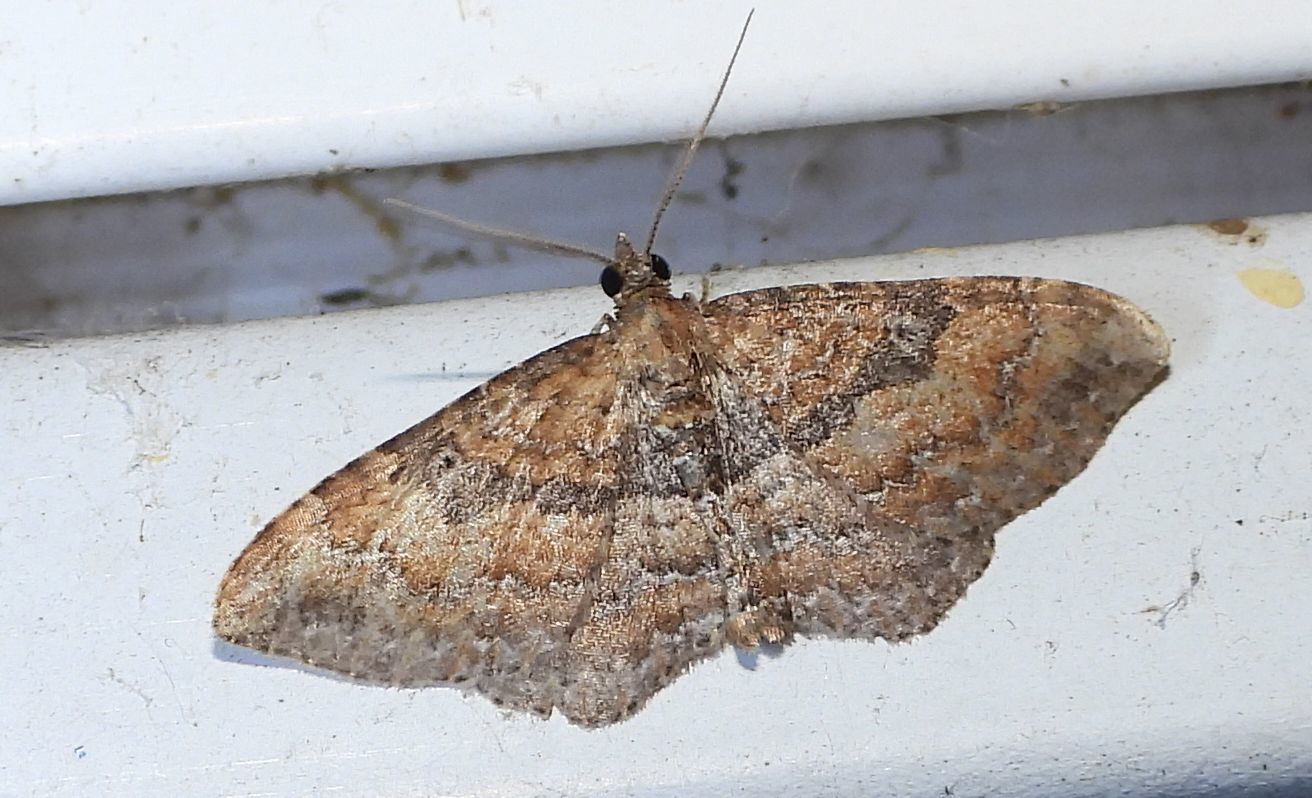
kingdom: Animalia
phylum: Arthropoda
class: Insecta
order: Lepidoptera
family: Geometridae
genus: Orthonama
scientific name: Orthonama obstipata
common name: The gem
